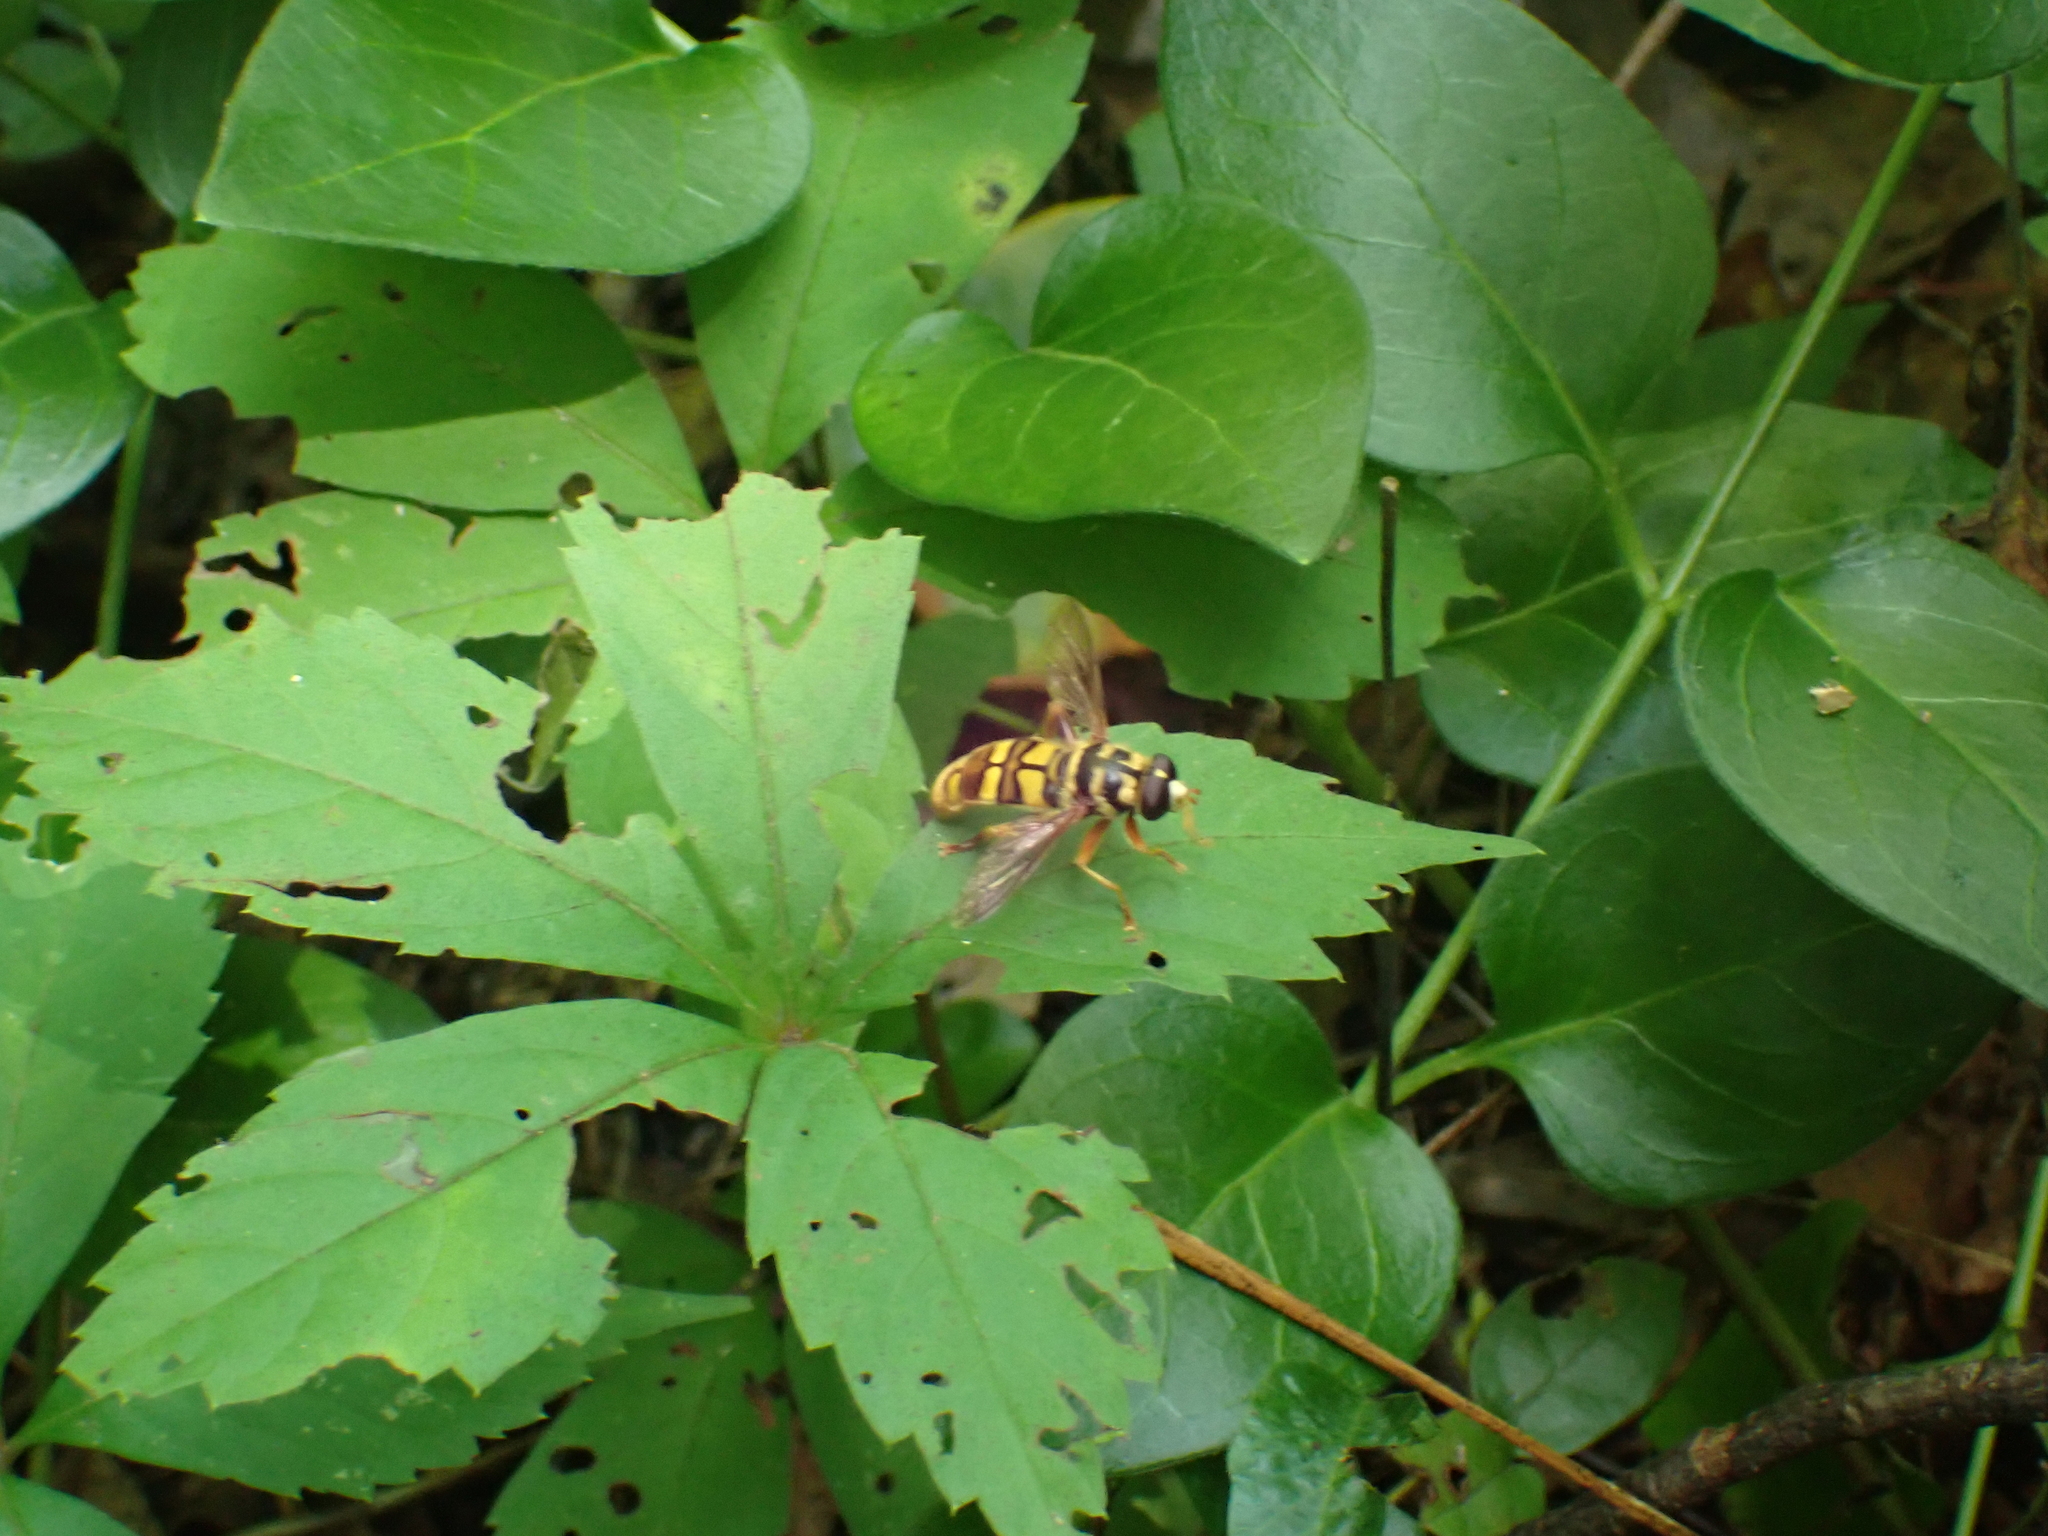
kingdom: Animalia
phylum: Arthropoda
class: Insecta
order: Diptera
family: Syrphidae
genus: Milesia
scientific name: Milesia virginiensis
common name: Virginia giant
